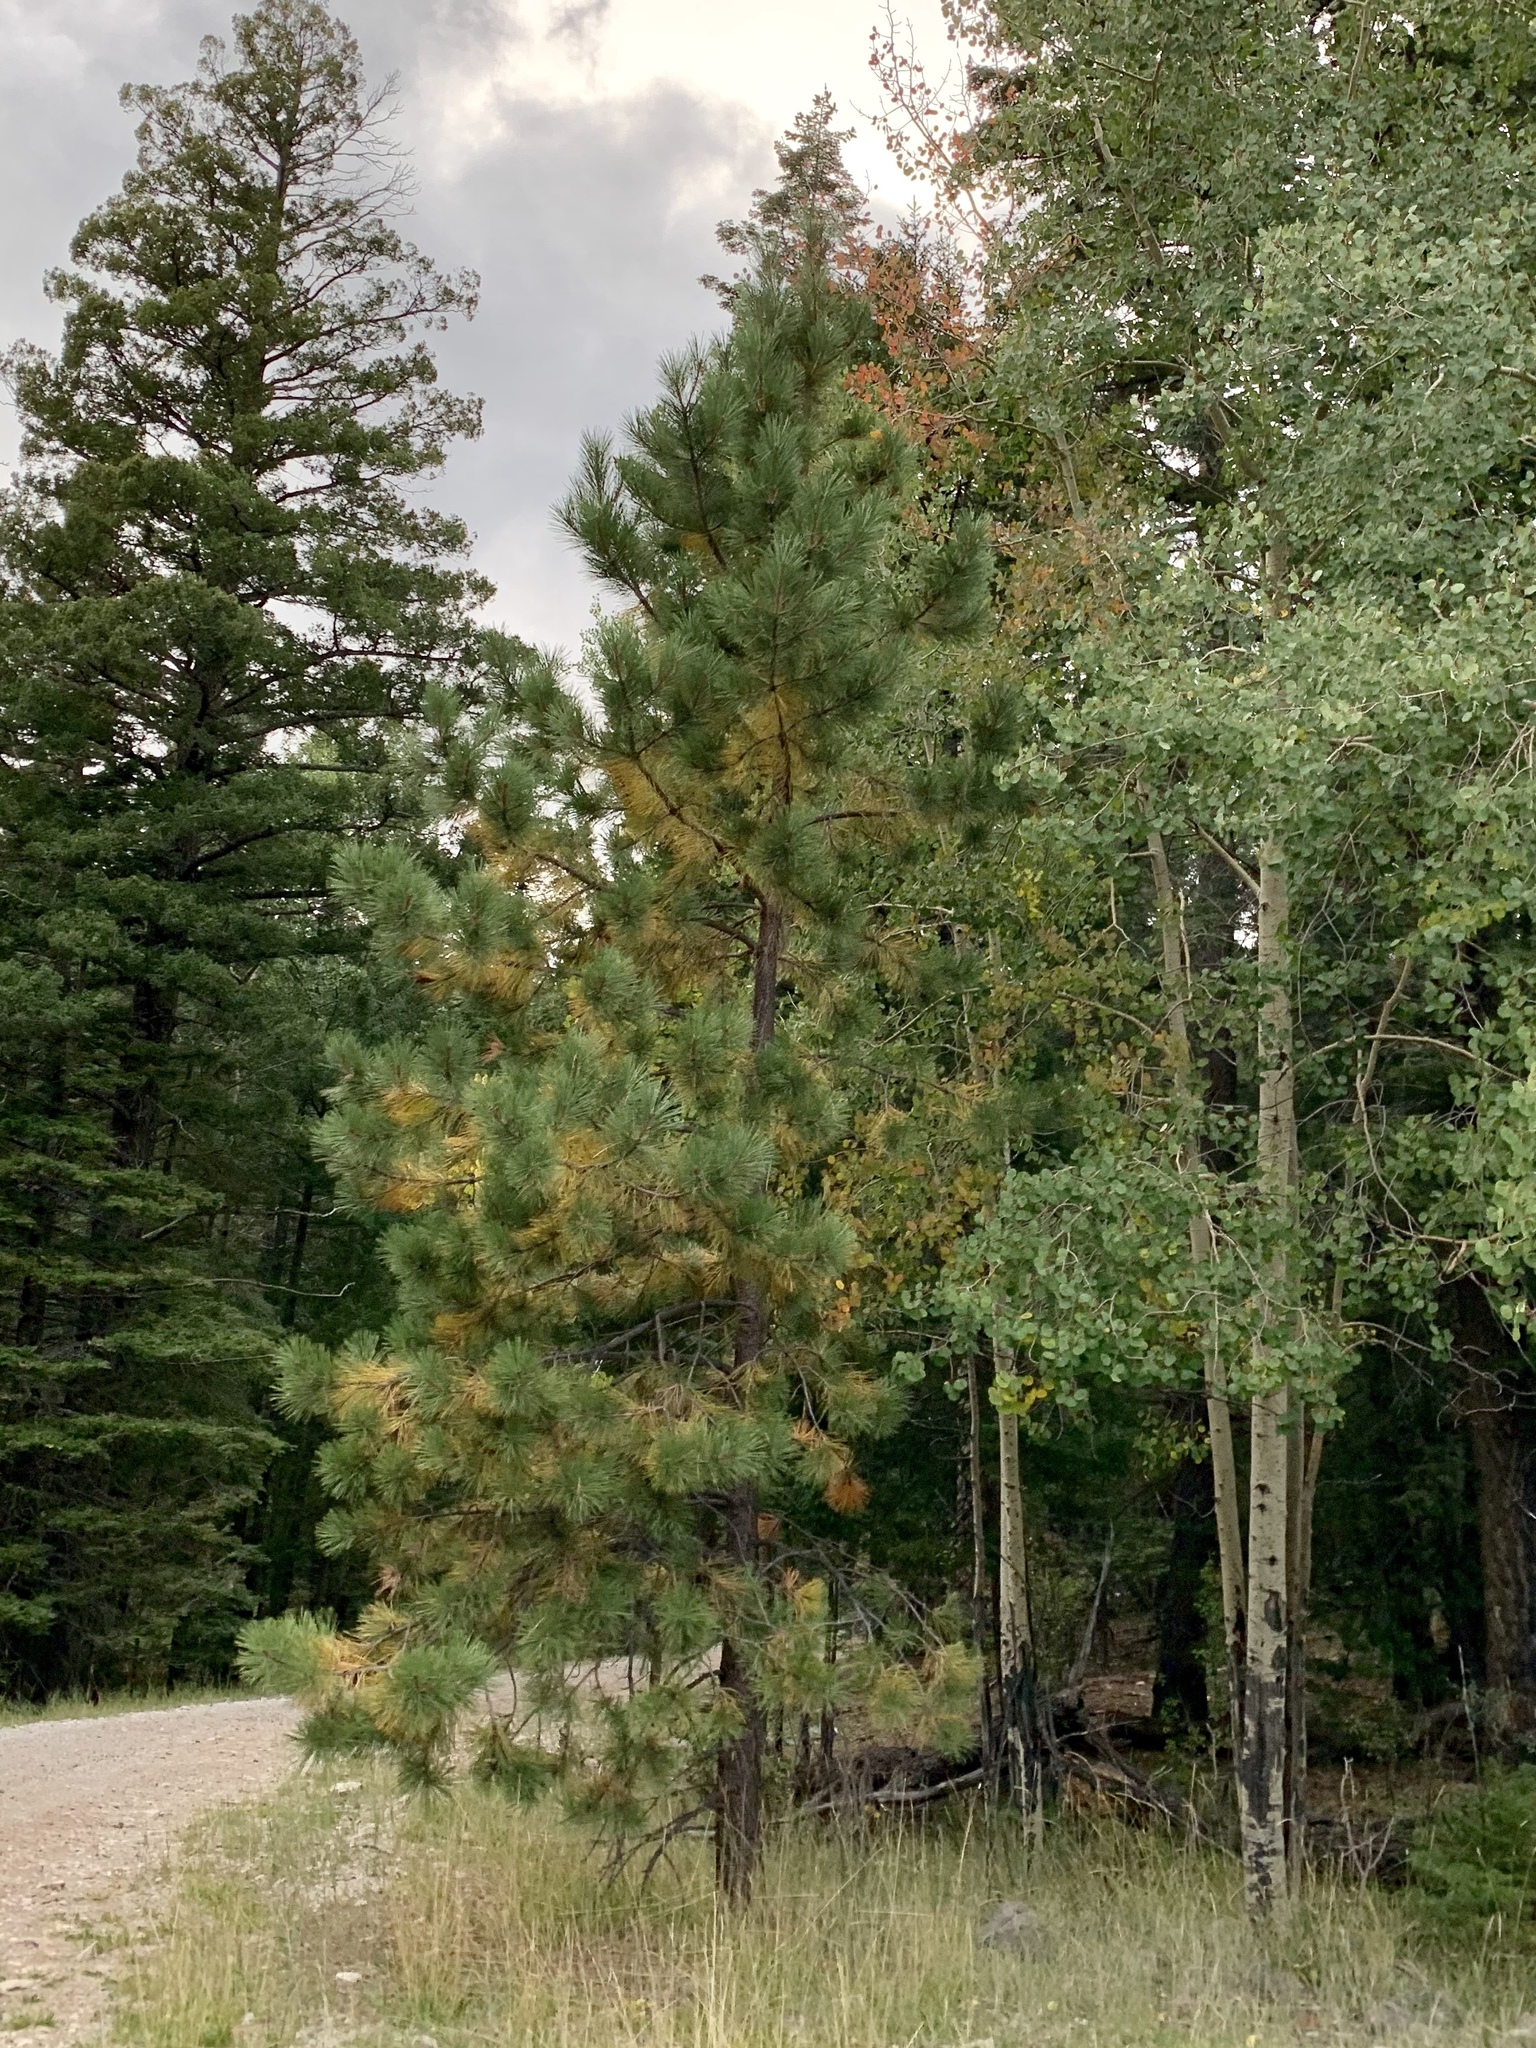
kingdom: Plantae
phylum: Tracheophyta
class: Pinopsida
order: Pinales
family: Pinaceae
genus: Pinus
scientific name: Pinus ponderosa
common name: Western yellow-pine
